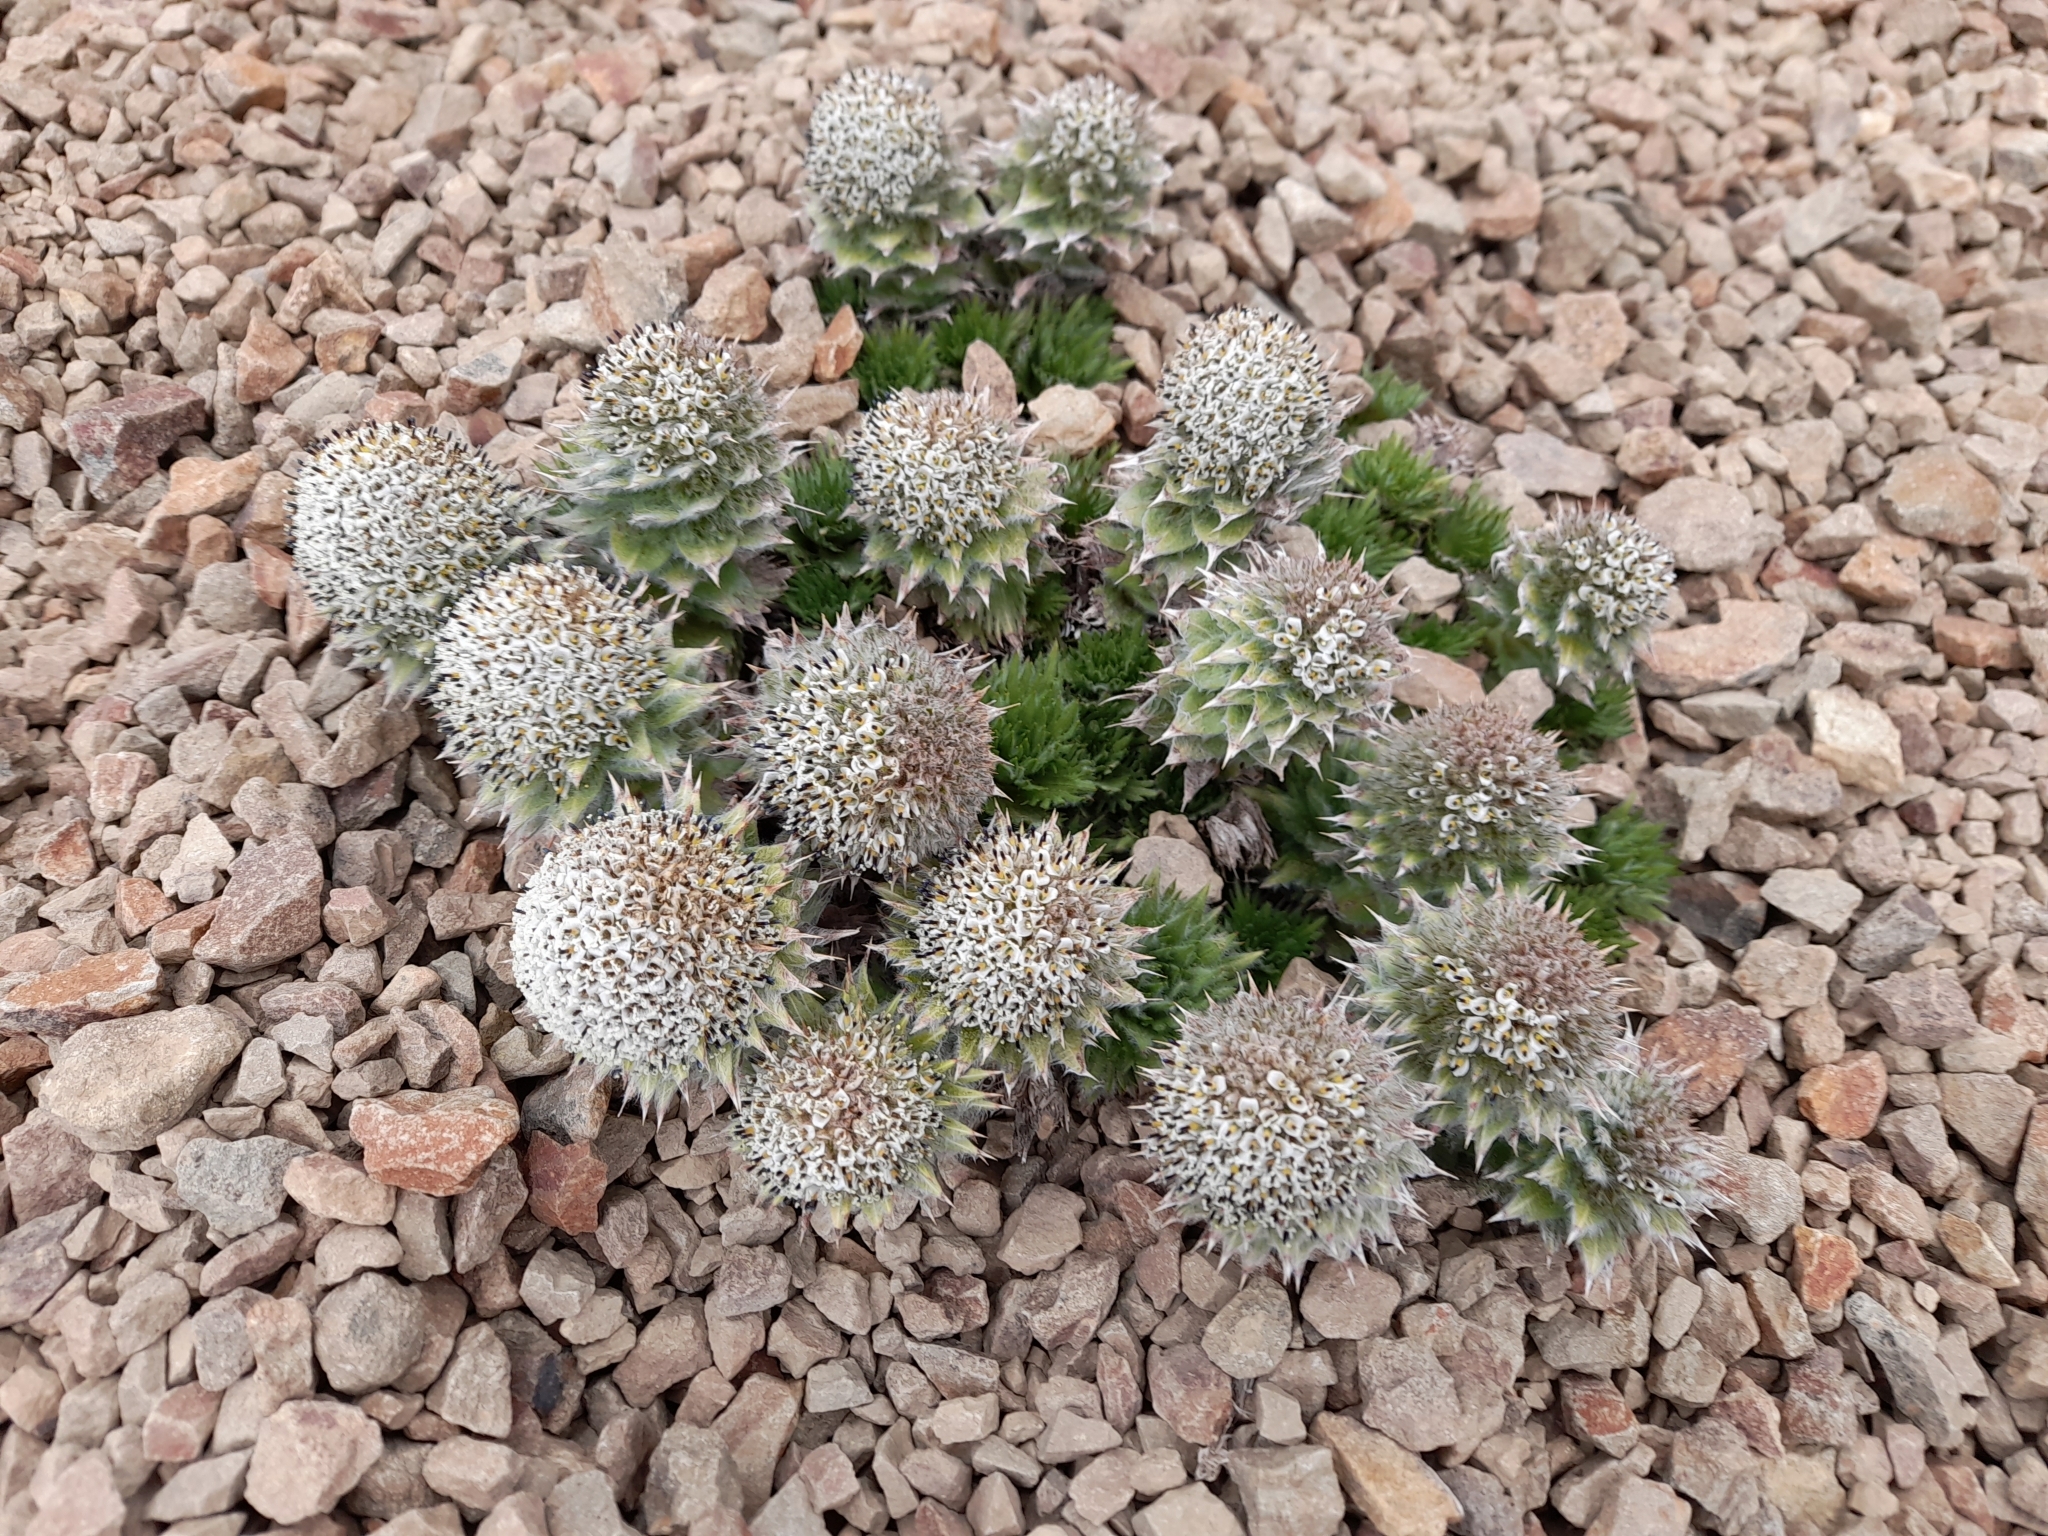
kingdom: Plantae
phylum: Tracheophyta
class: Magnoliopsida
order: Asterales
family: Asteraceae
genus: Nassauvia
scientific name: Nassauvia magellanica
